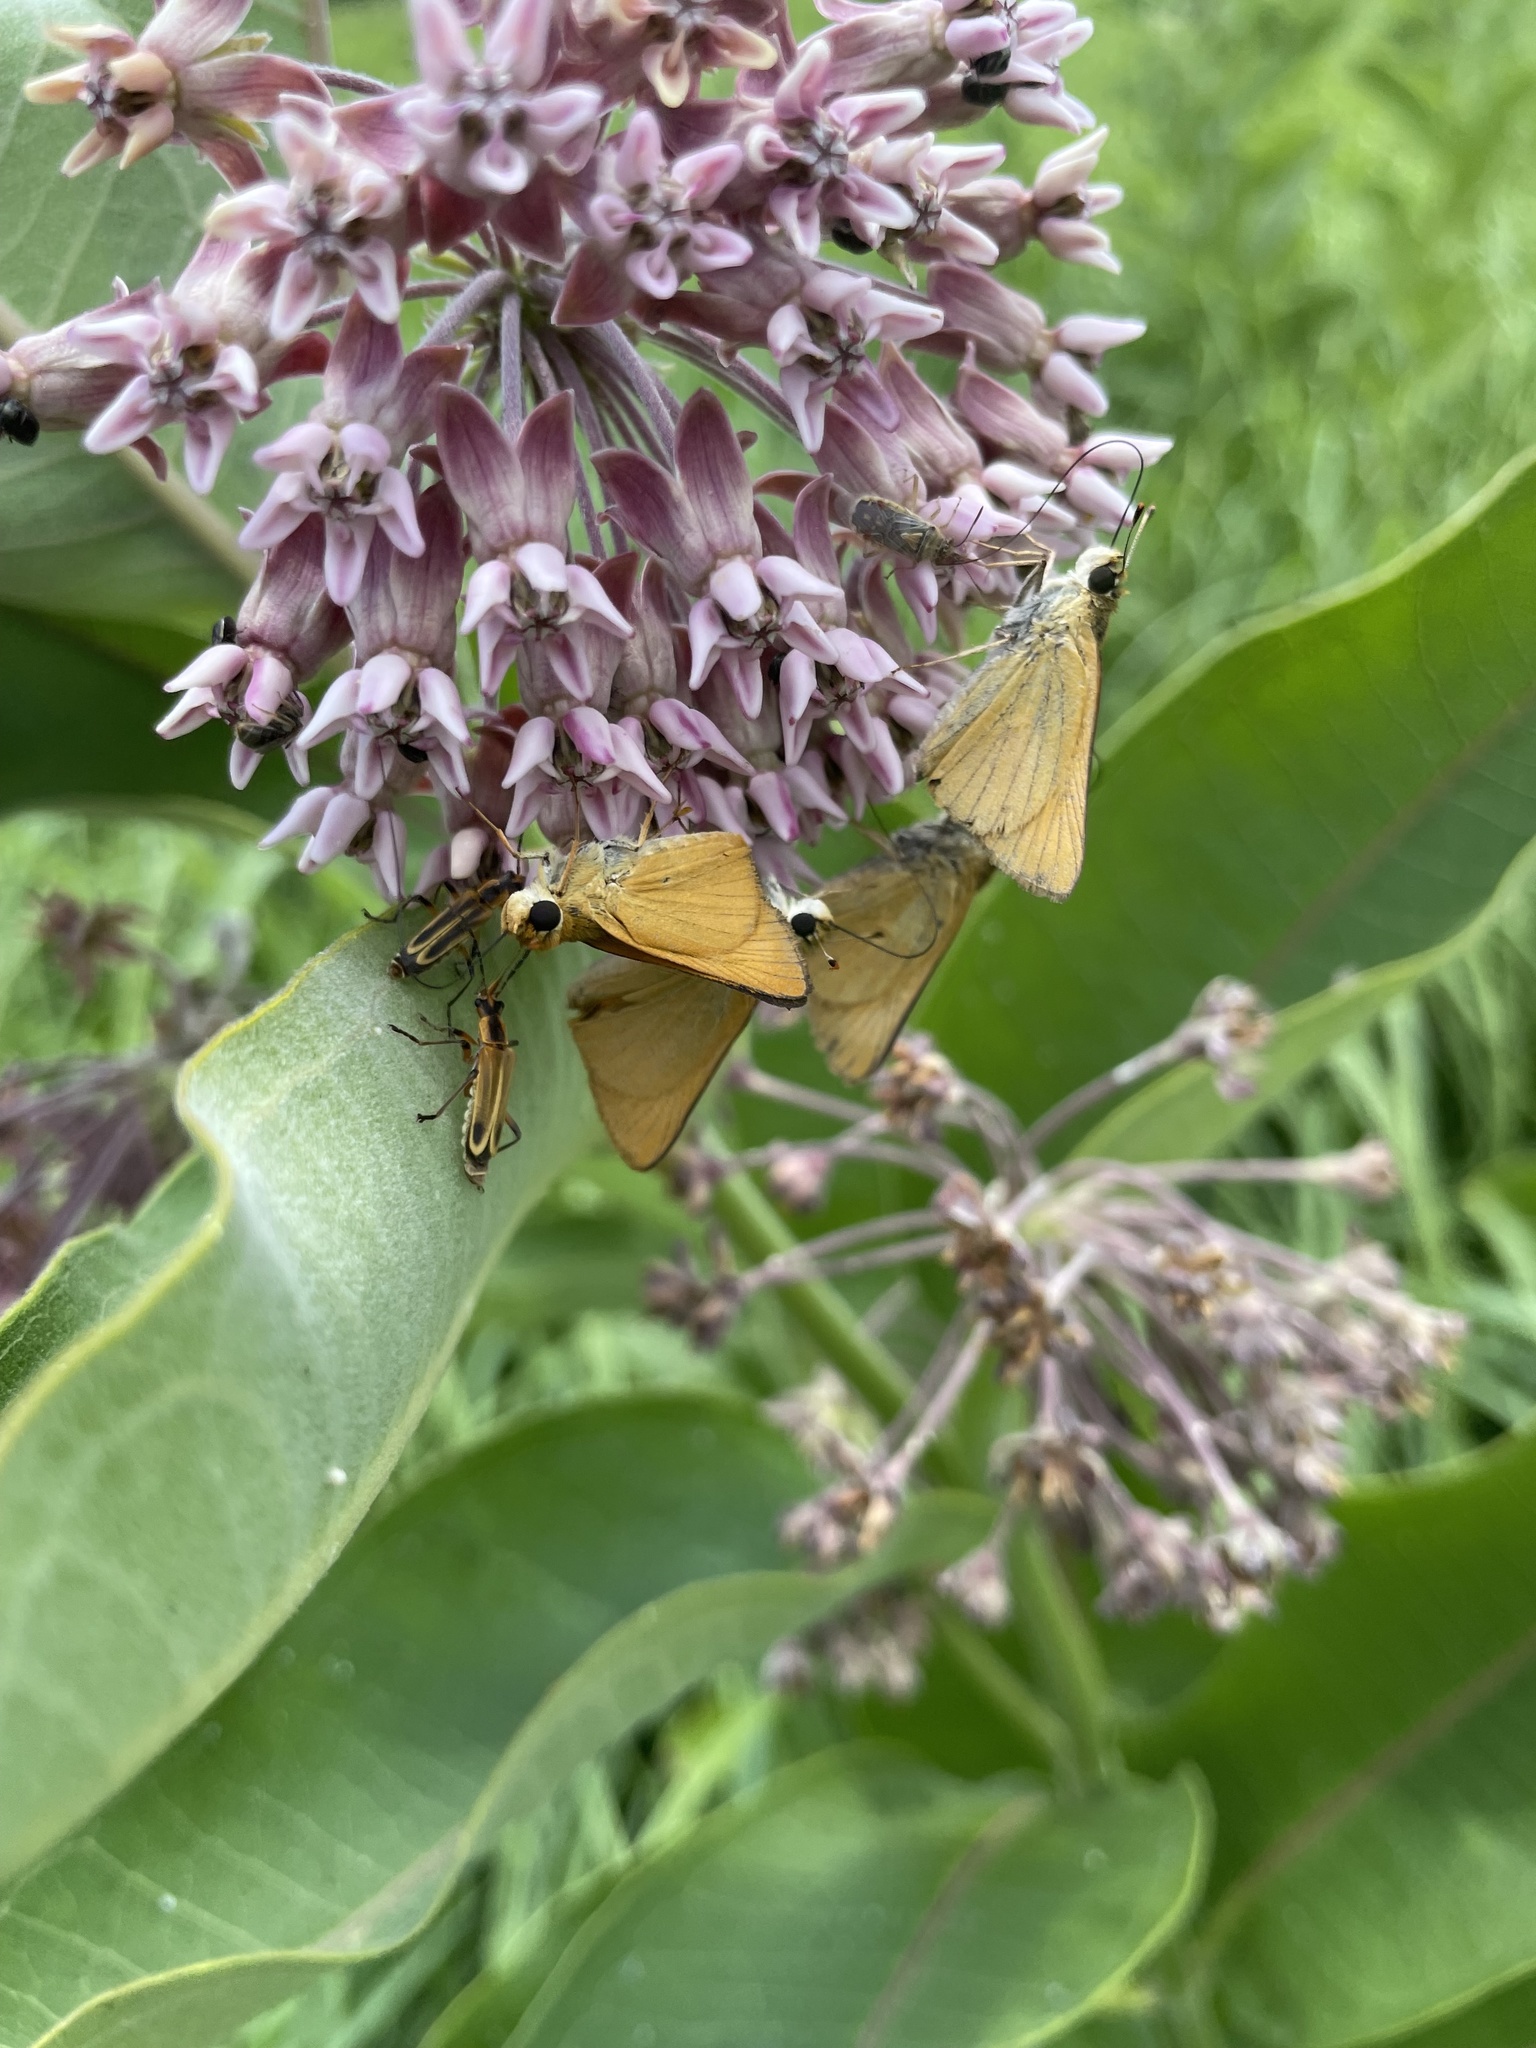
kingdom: Animalia
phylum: Arthropoda
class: Insecta
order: Lepidoptera
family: Hesperiidae
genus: Atrytone
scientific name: Atrytone delaware
